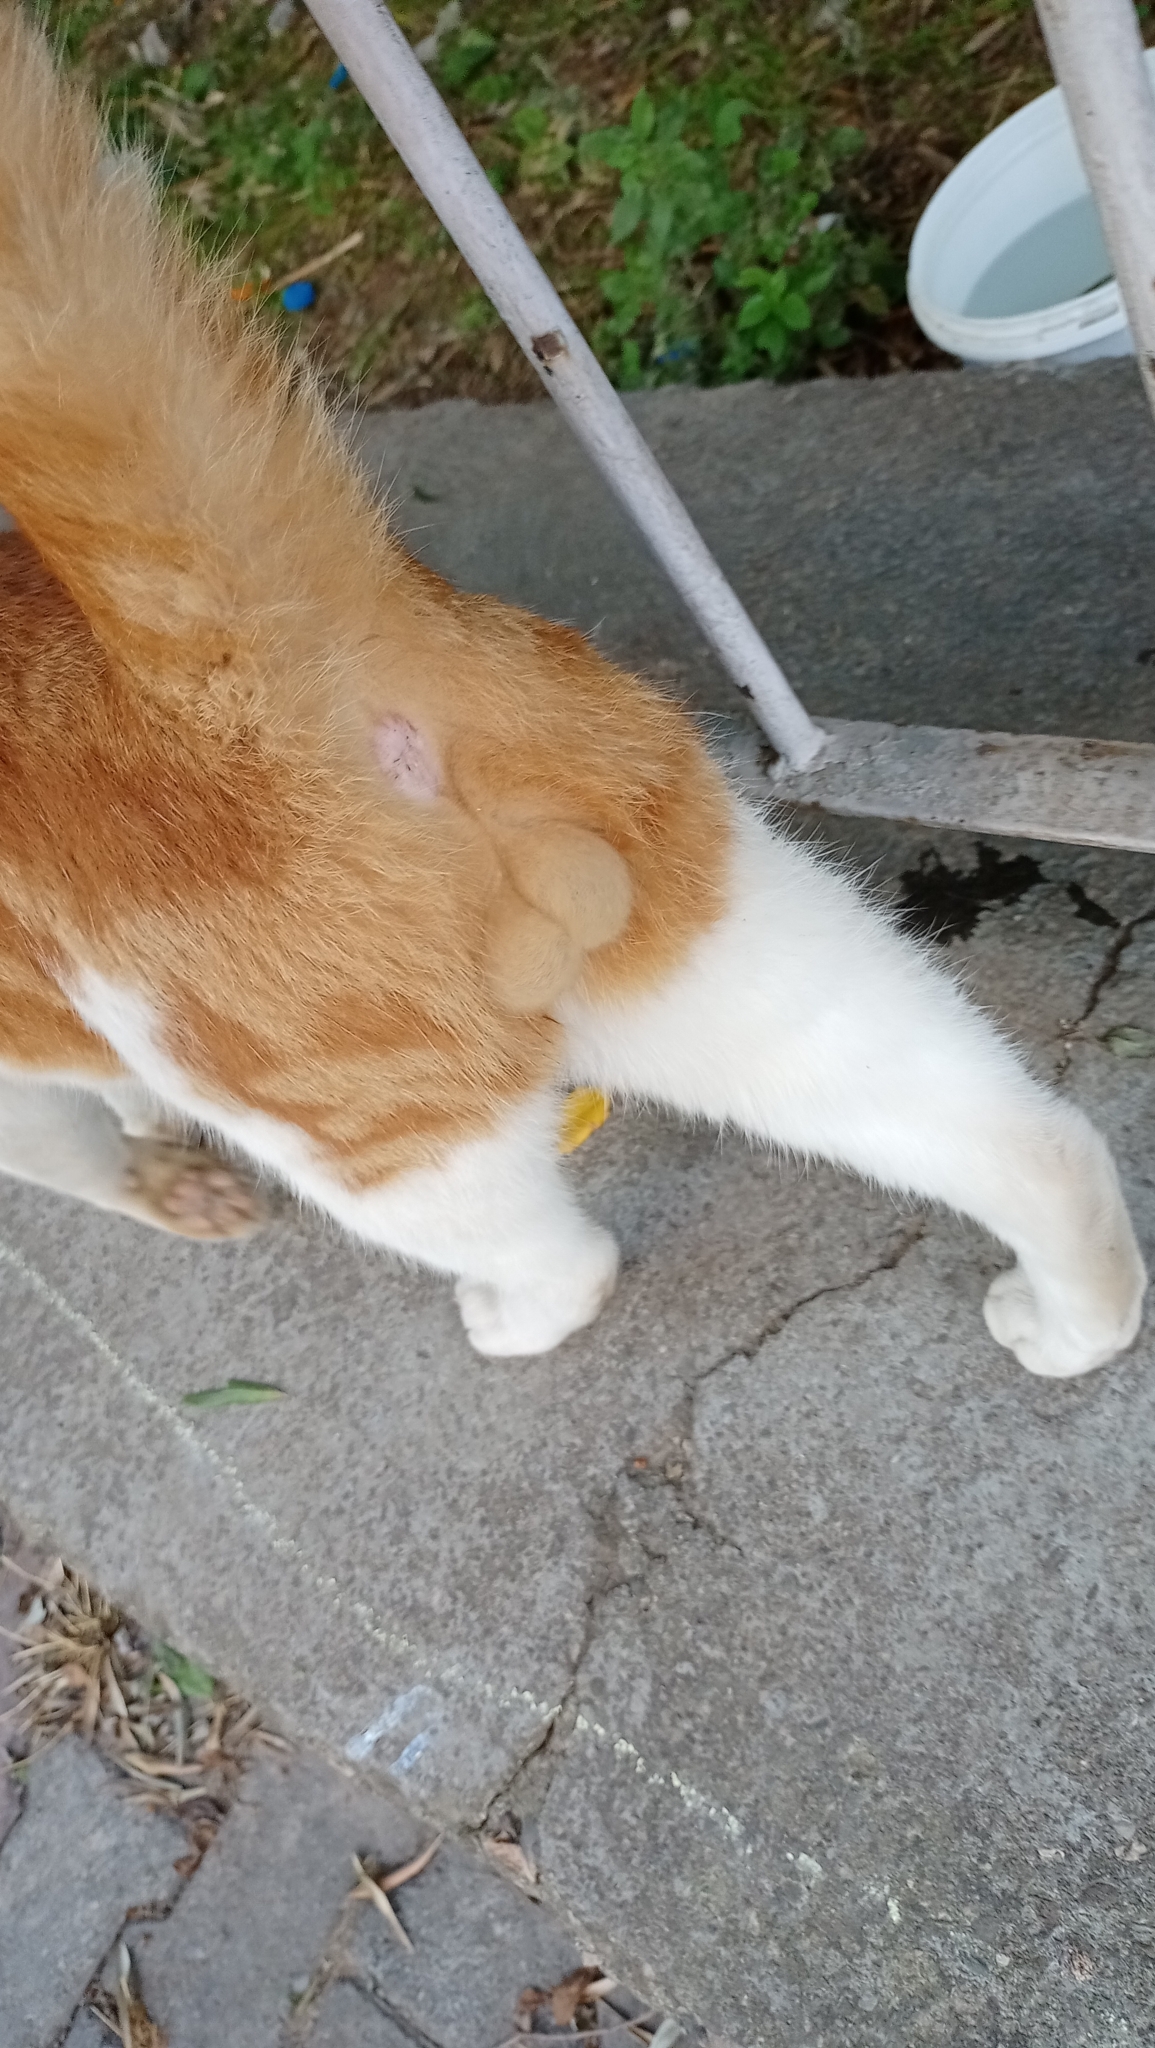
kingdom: Animalia
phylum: Chordata
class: Mammalia
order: Carnivora
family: Felidae
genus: Felis
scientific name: Felis catus
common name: Domestic cat
